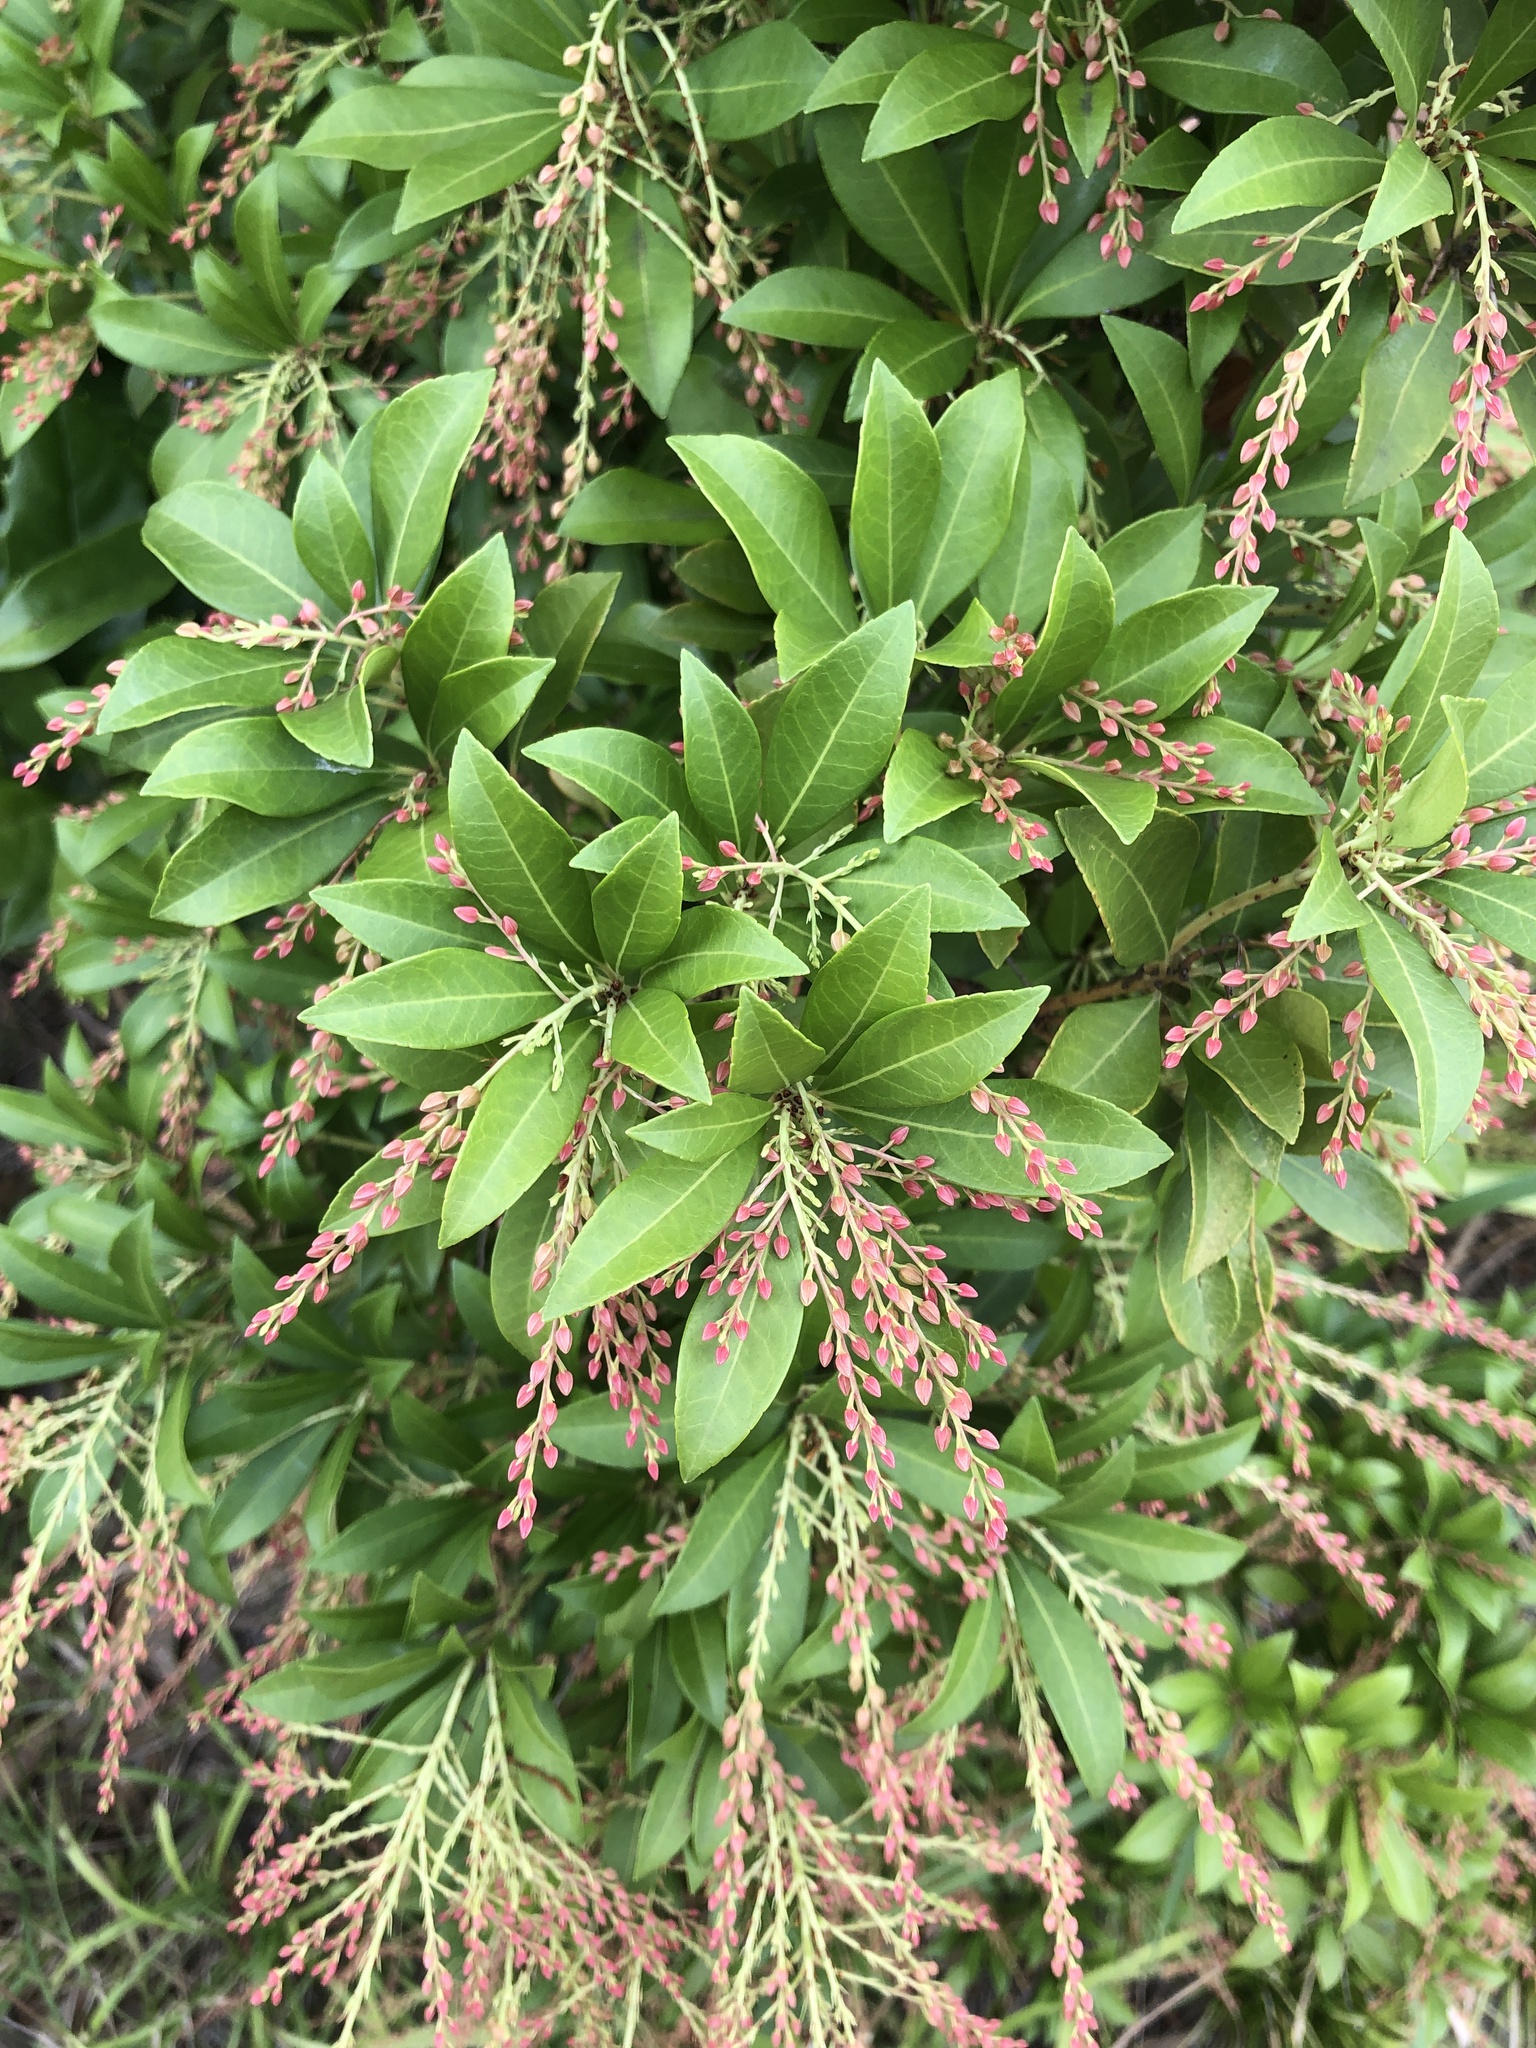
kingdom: Plantae
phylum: Tracheophyta
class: Magnoliopsida
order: Ericales
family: Ericaceae
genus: Pieris
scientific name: Pieris japonica
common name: Japanese pieris
